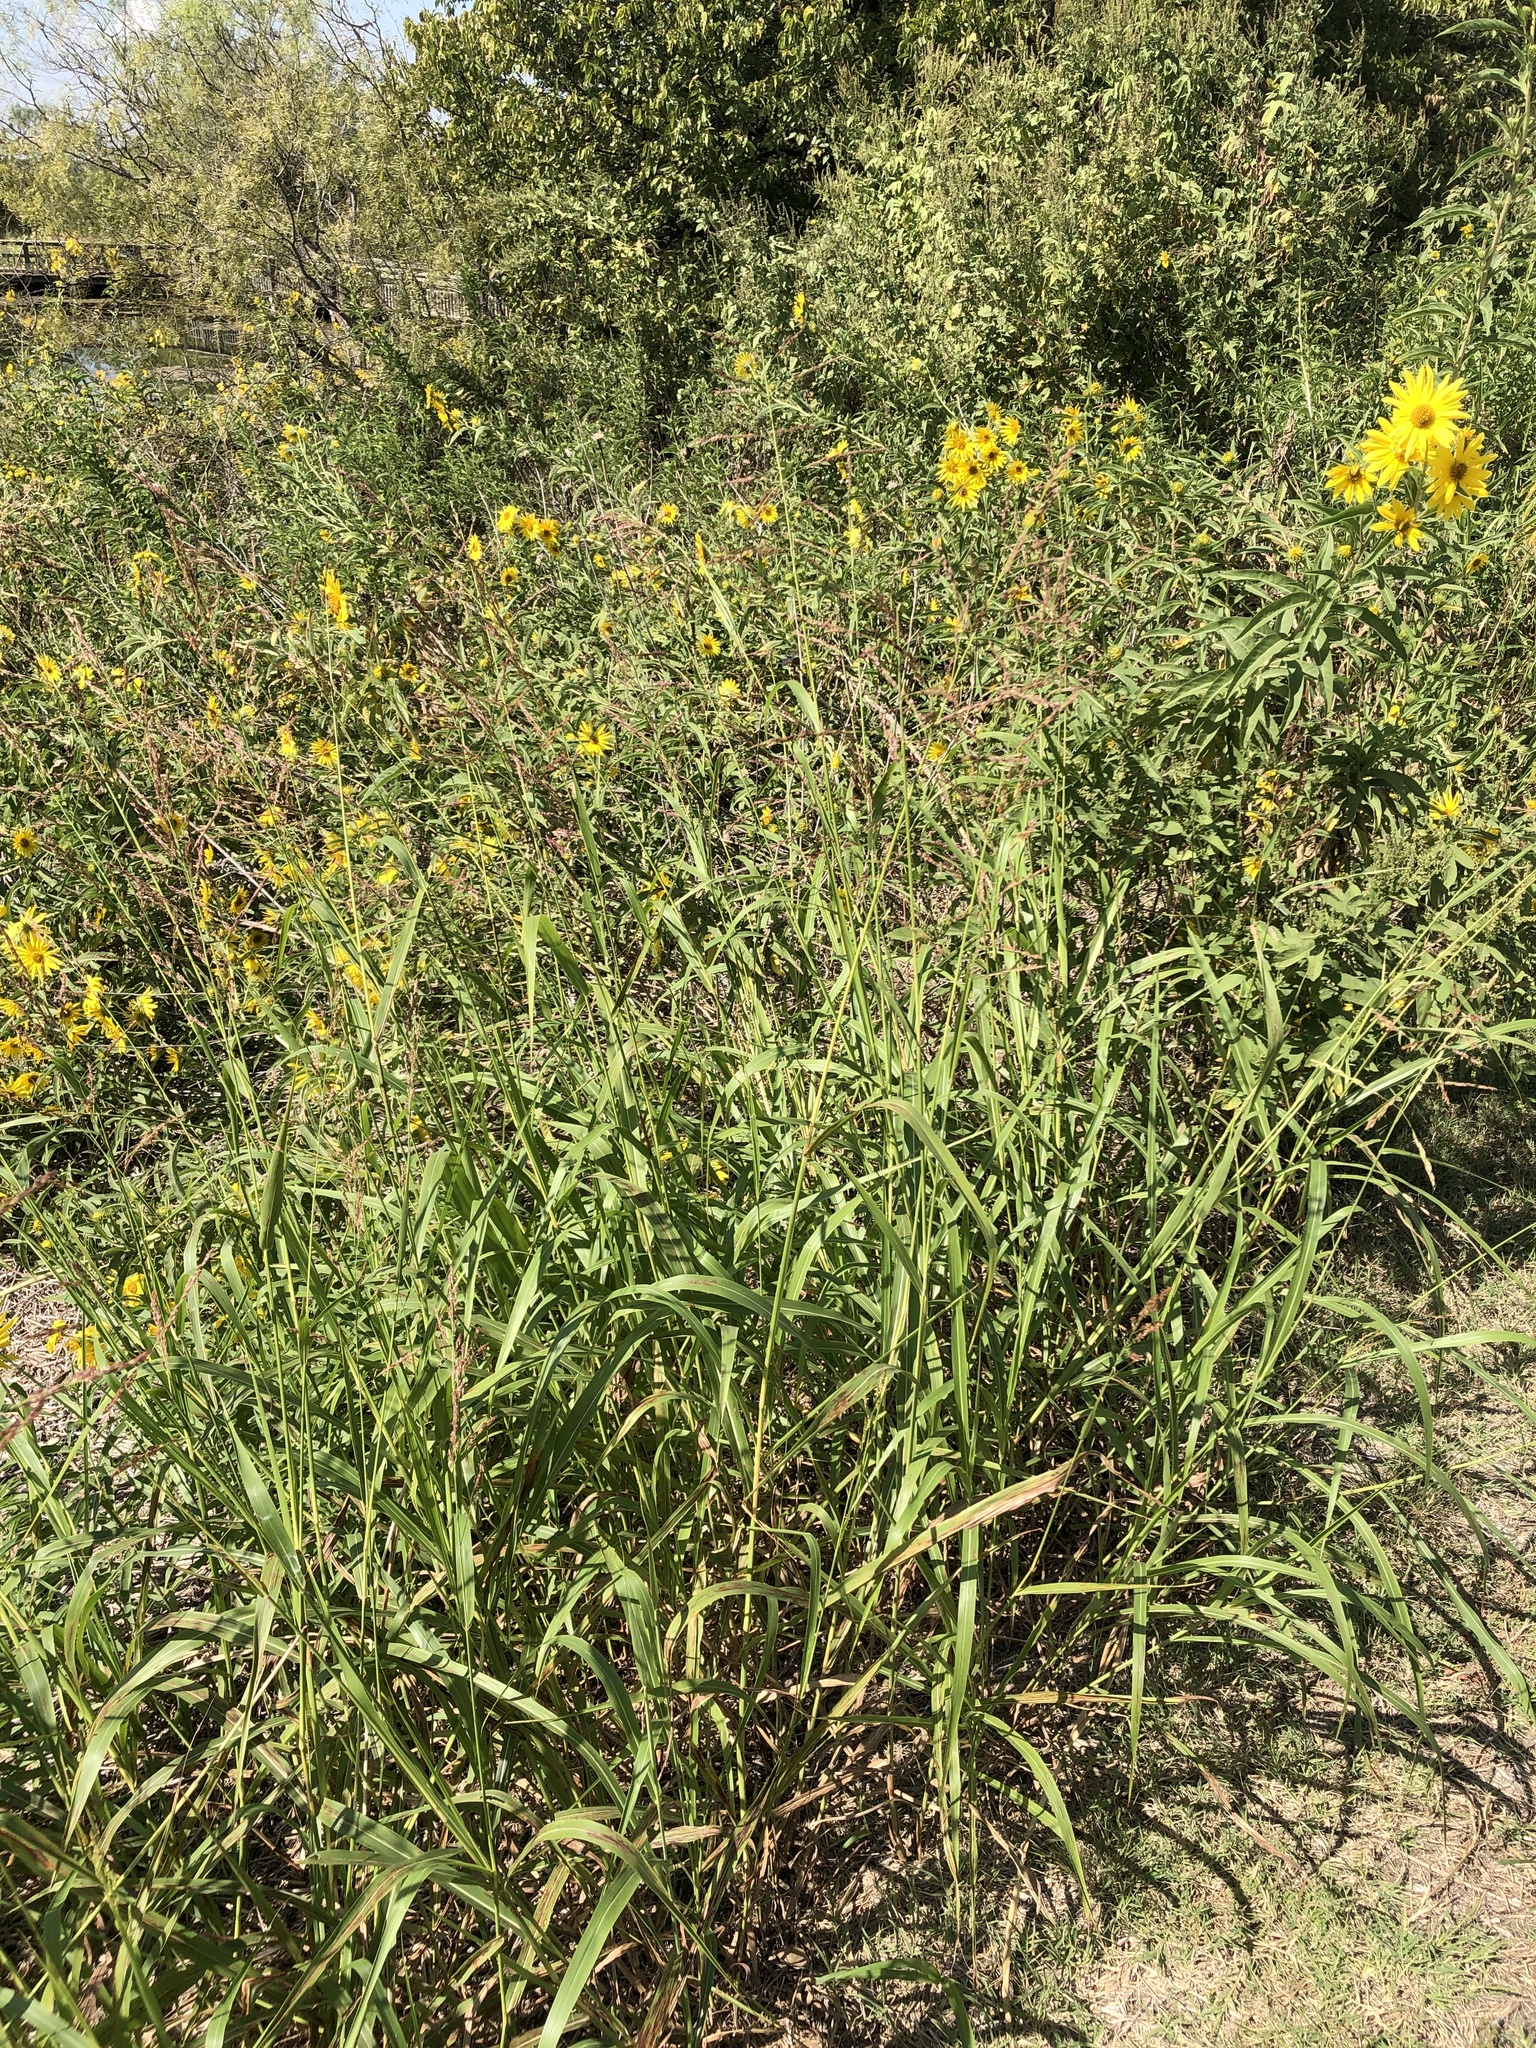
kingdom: Plantae
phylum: Tracheophyta
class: Liliopsida
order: Poales
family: Poaceae
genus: Sorghum
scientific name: Sorghum halepense
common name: Johnson-grass
